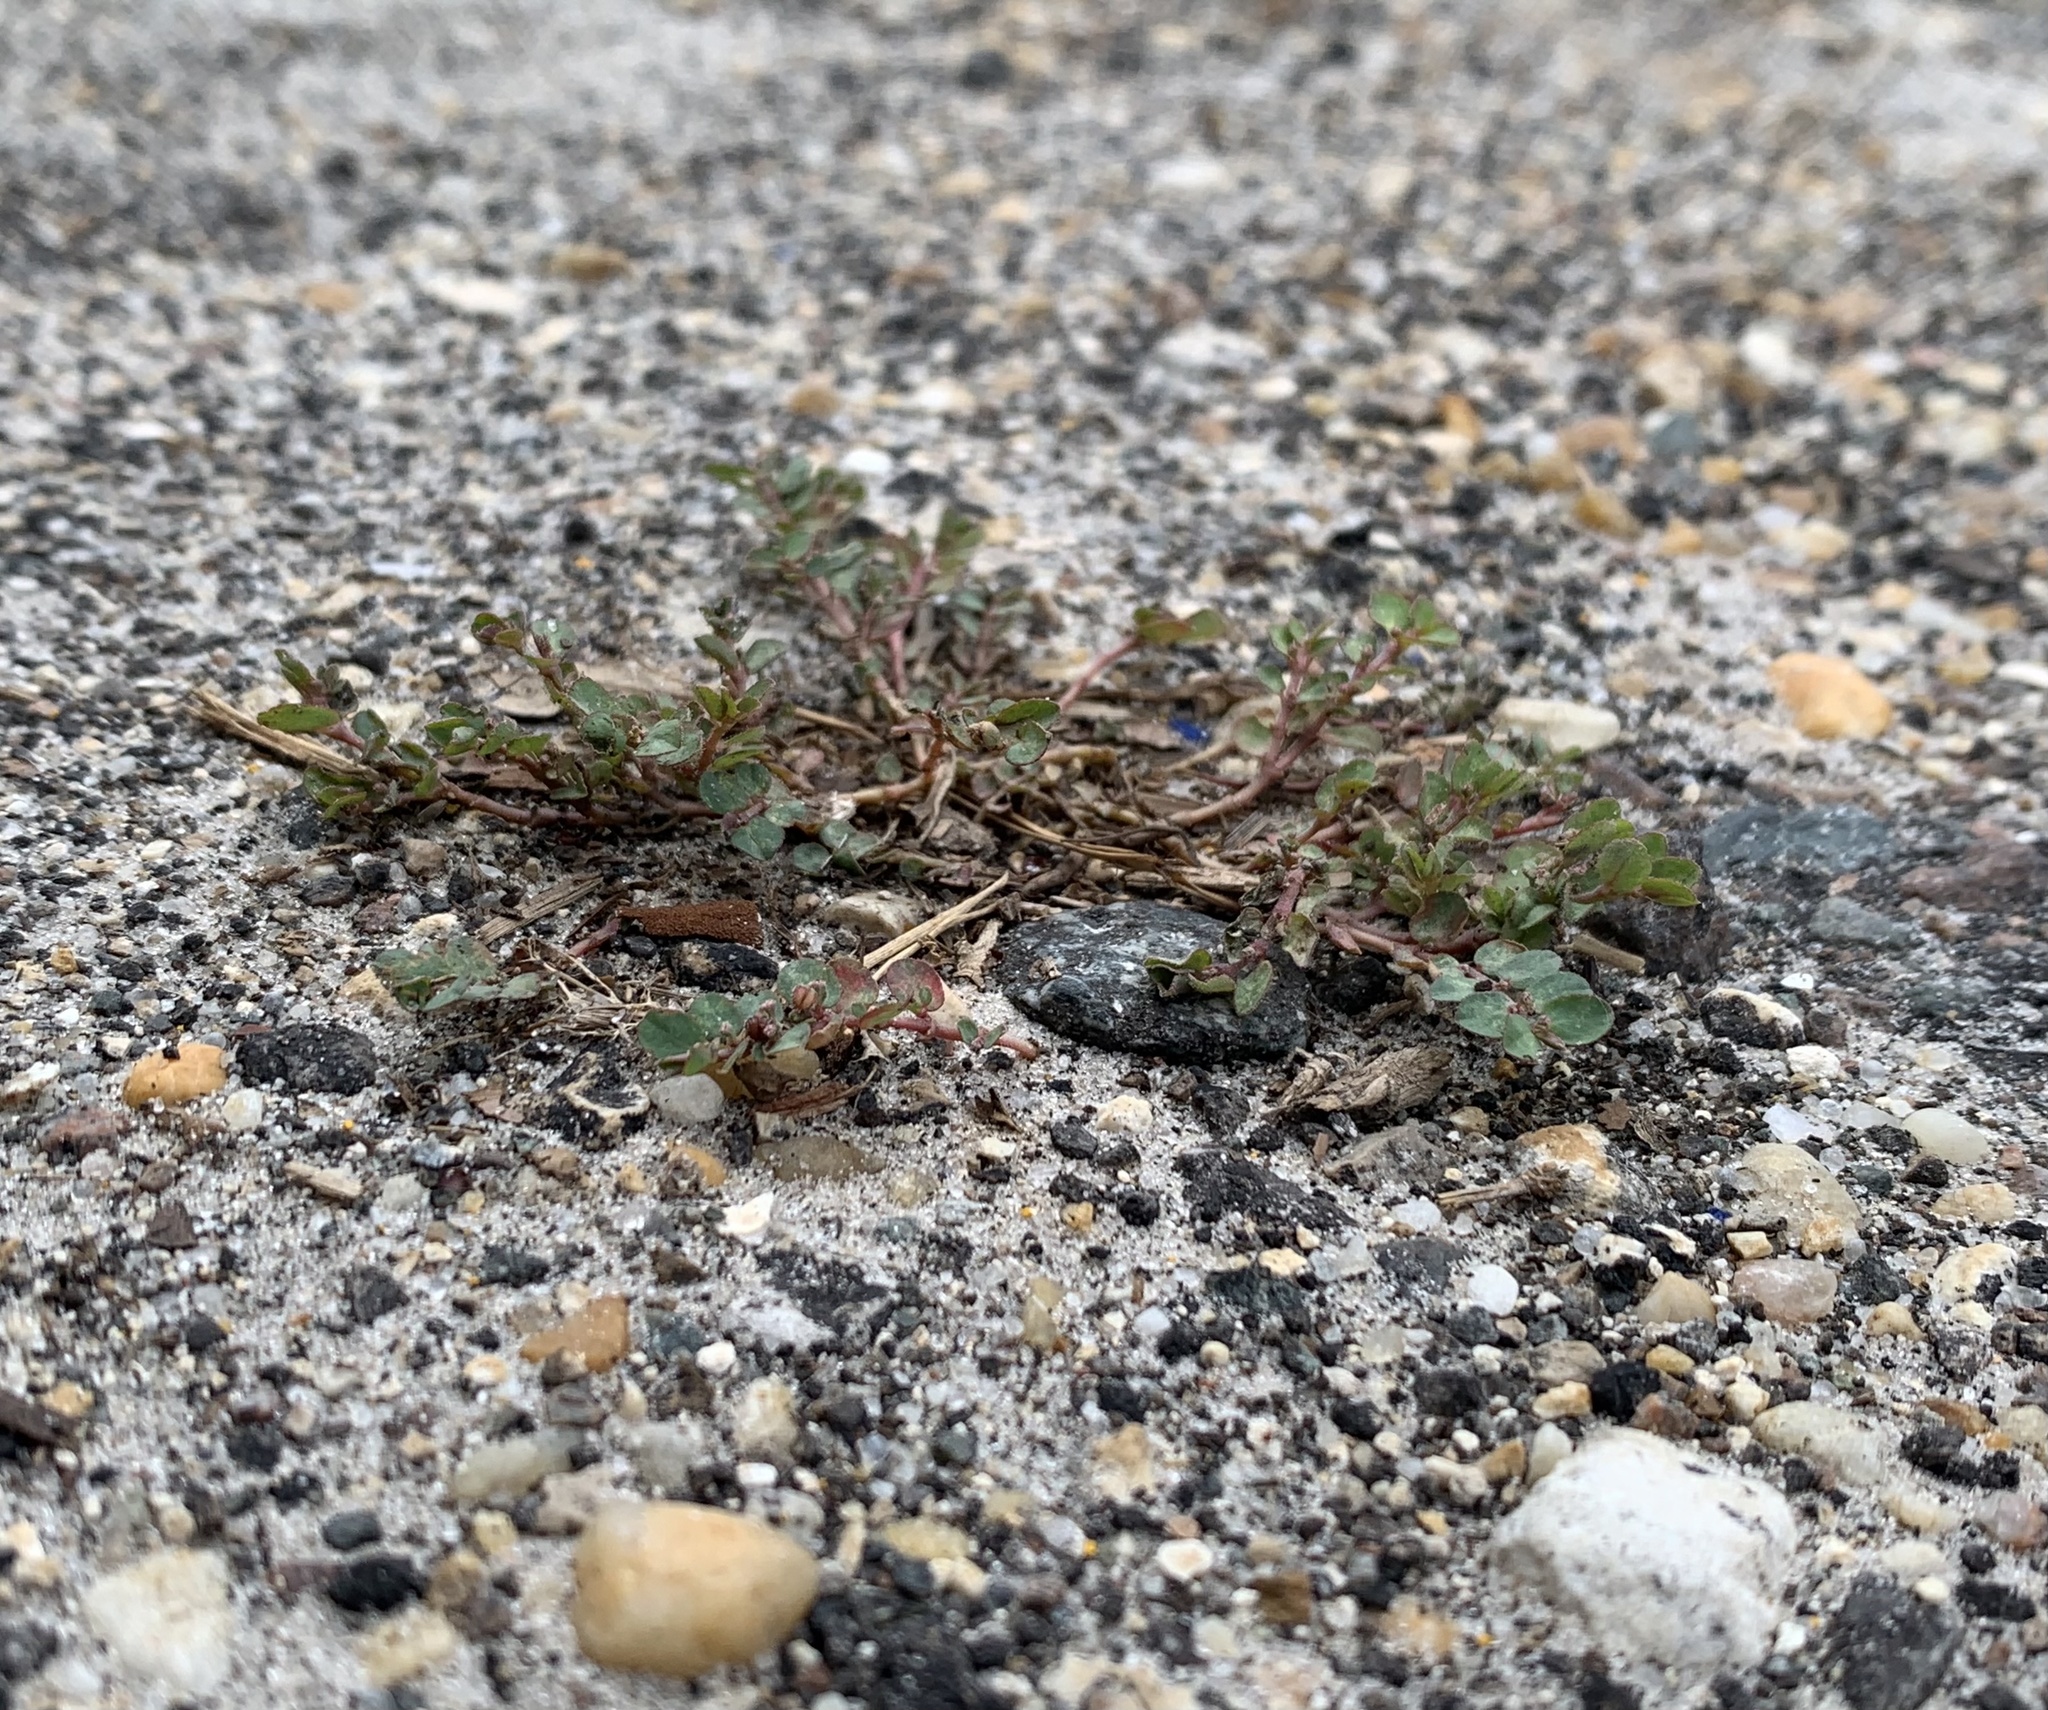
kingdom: Plantae
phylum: Tracheophyta
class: Magnoliopsida
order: Malpighiales
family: Euphorbiaceae
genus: Euphorbia
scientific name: Euphorbia prostrata
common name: Prostrate sandmat
